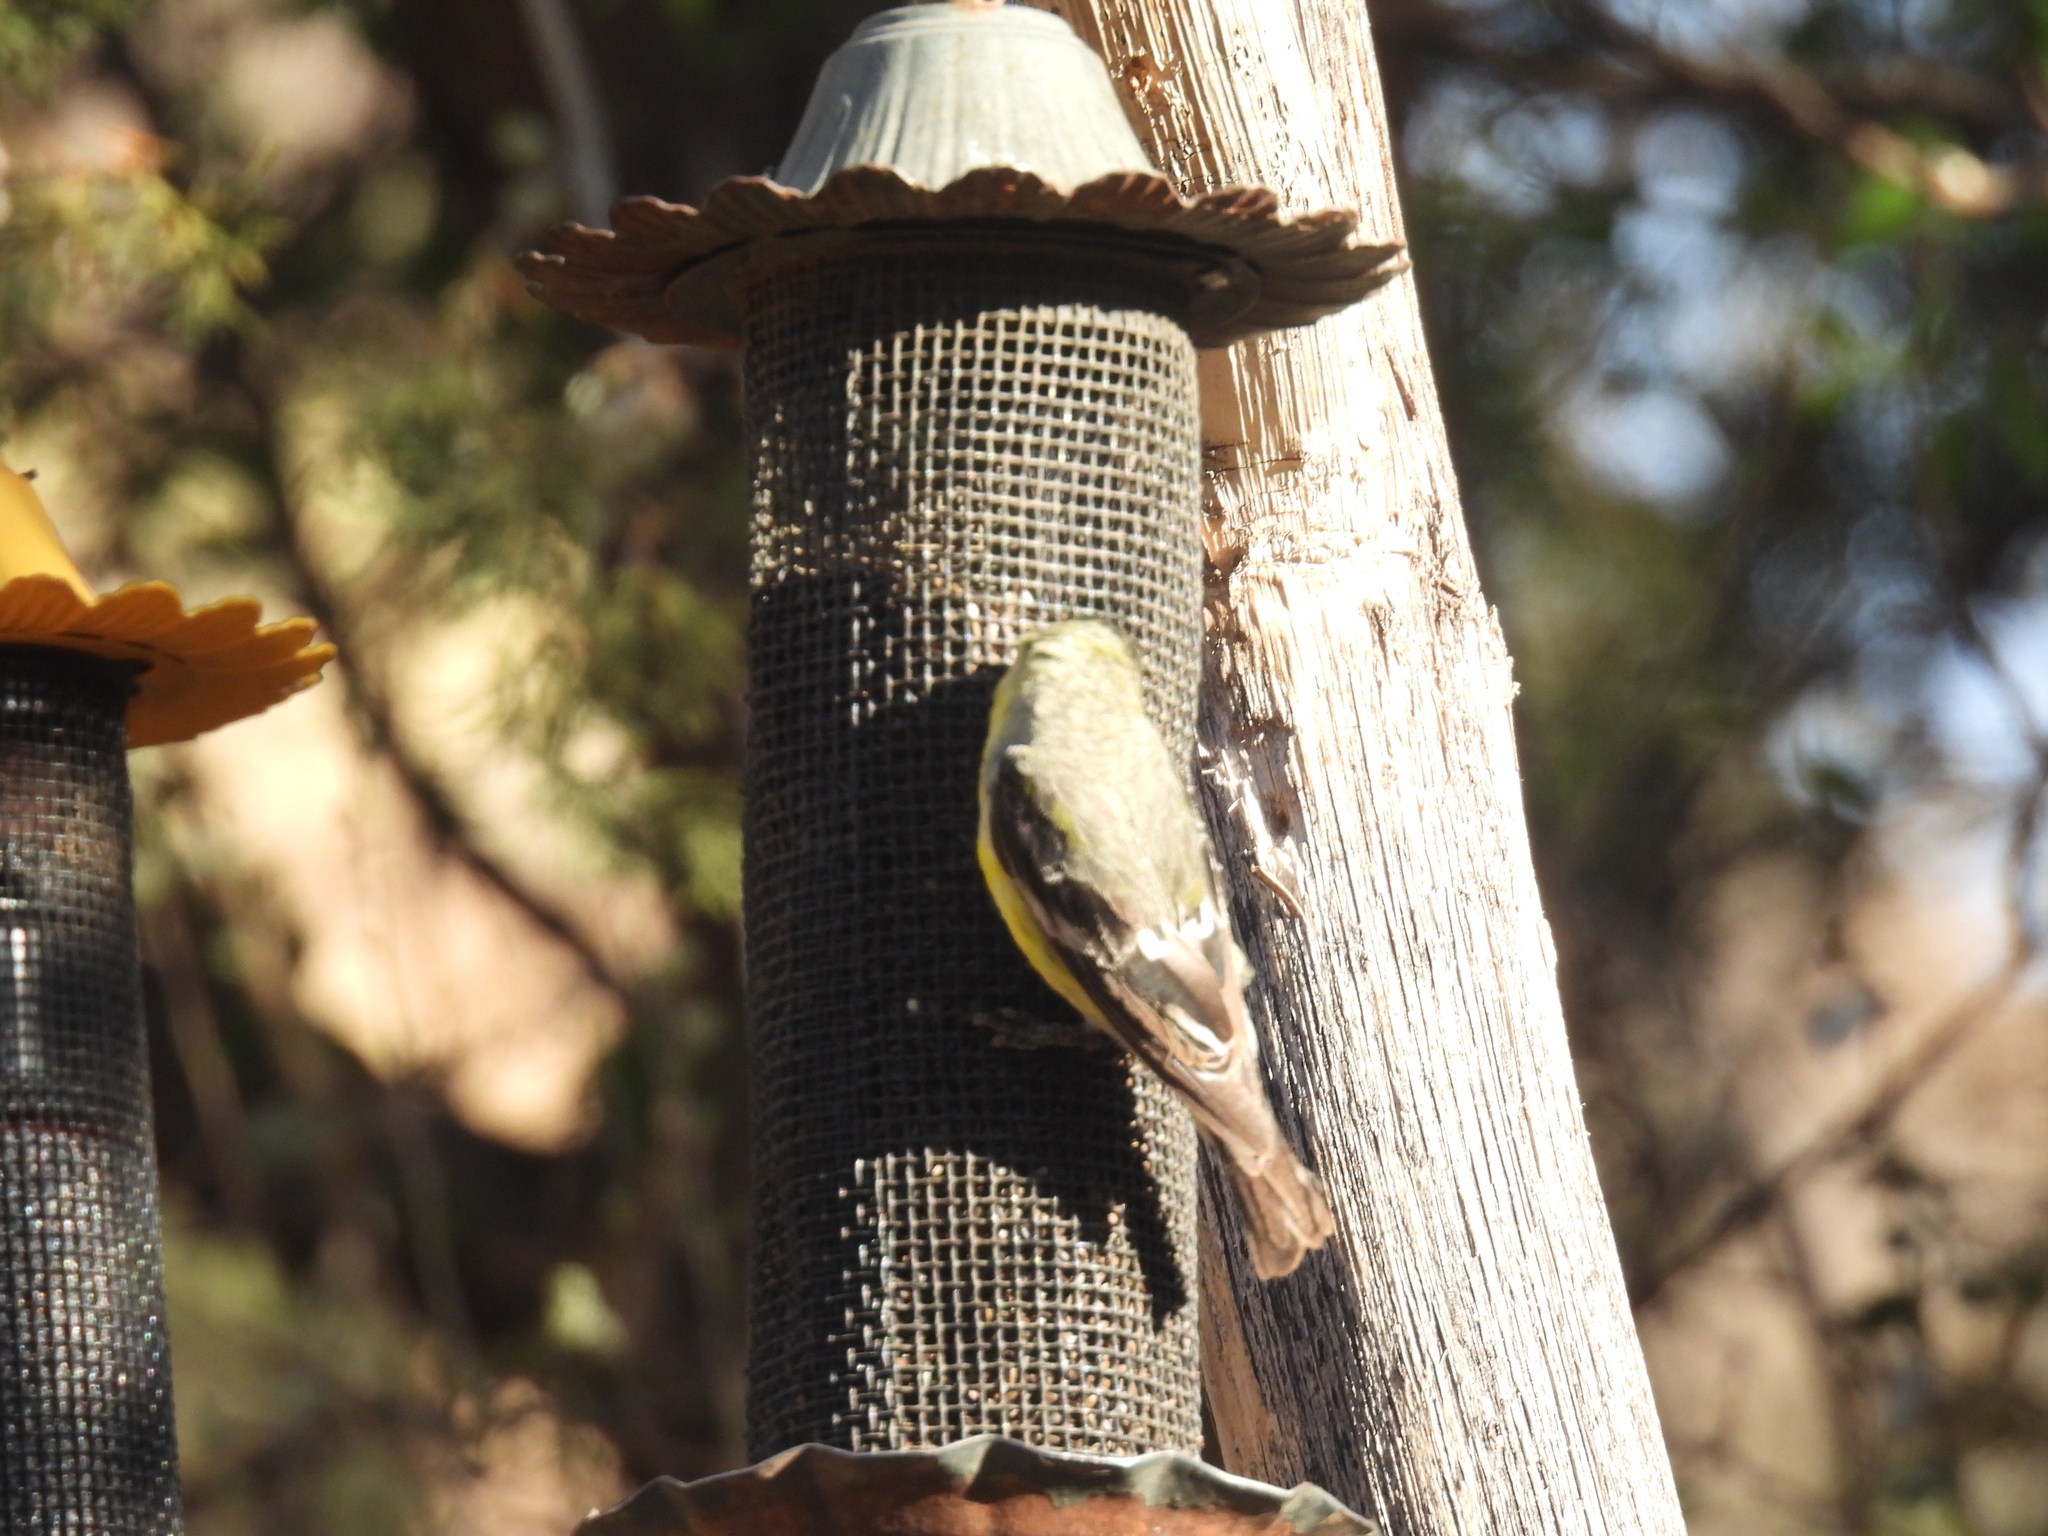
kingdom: Animalia
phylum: Chordata
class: Aves
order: Passeriformes
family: Fringillidae
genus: Spinus
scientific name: Spinus psaltria
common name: Lesser goldfinch
